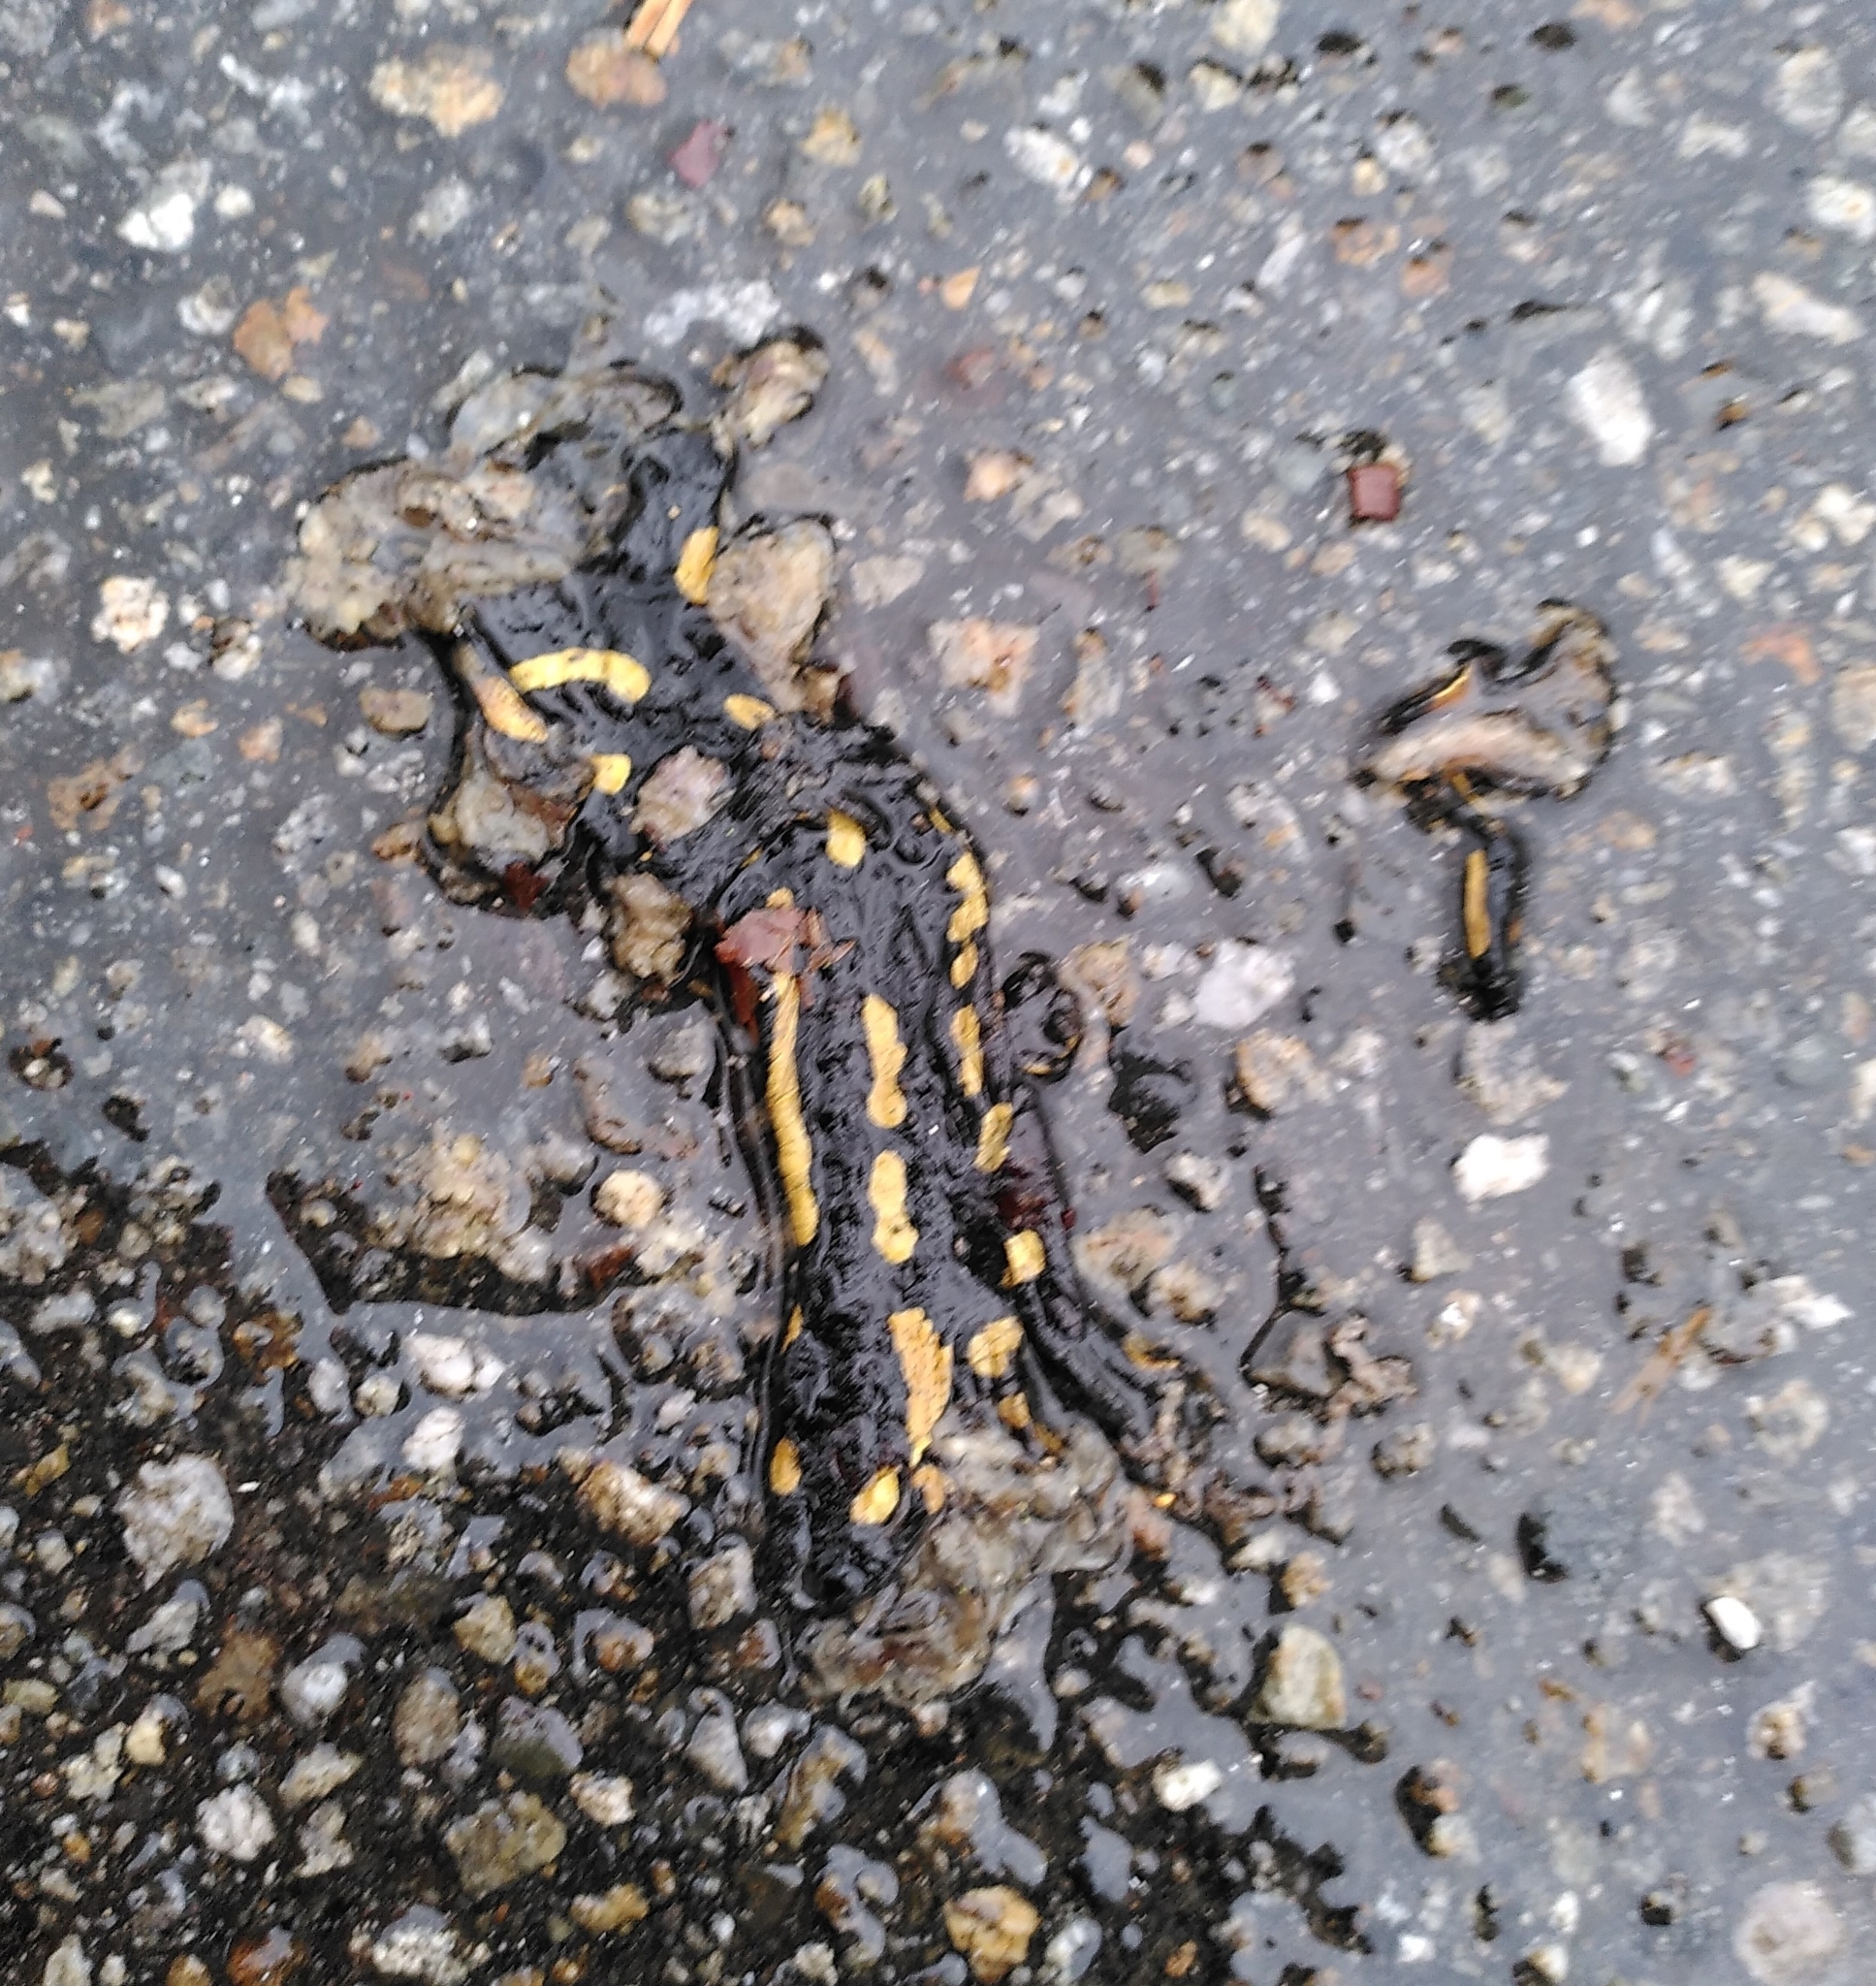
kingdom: Animalia
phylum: Chordata
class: Amphibia
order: Caudata
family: Salamandridae
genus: Salamandra
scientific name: Salamandra salamandra
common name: Fire salamander
